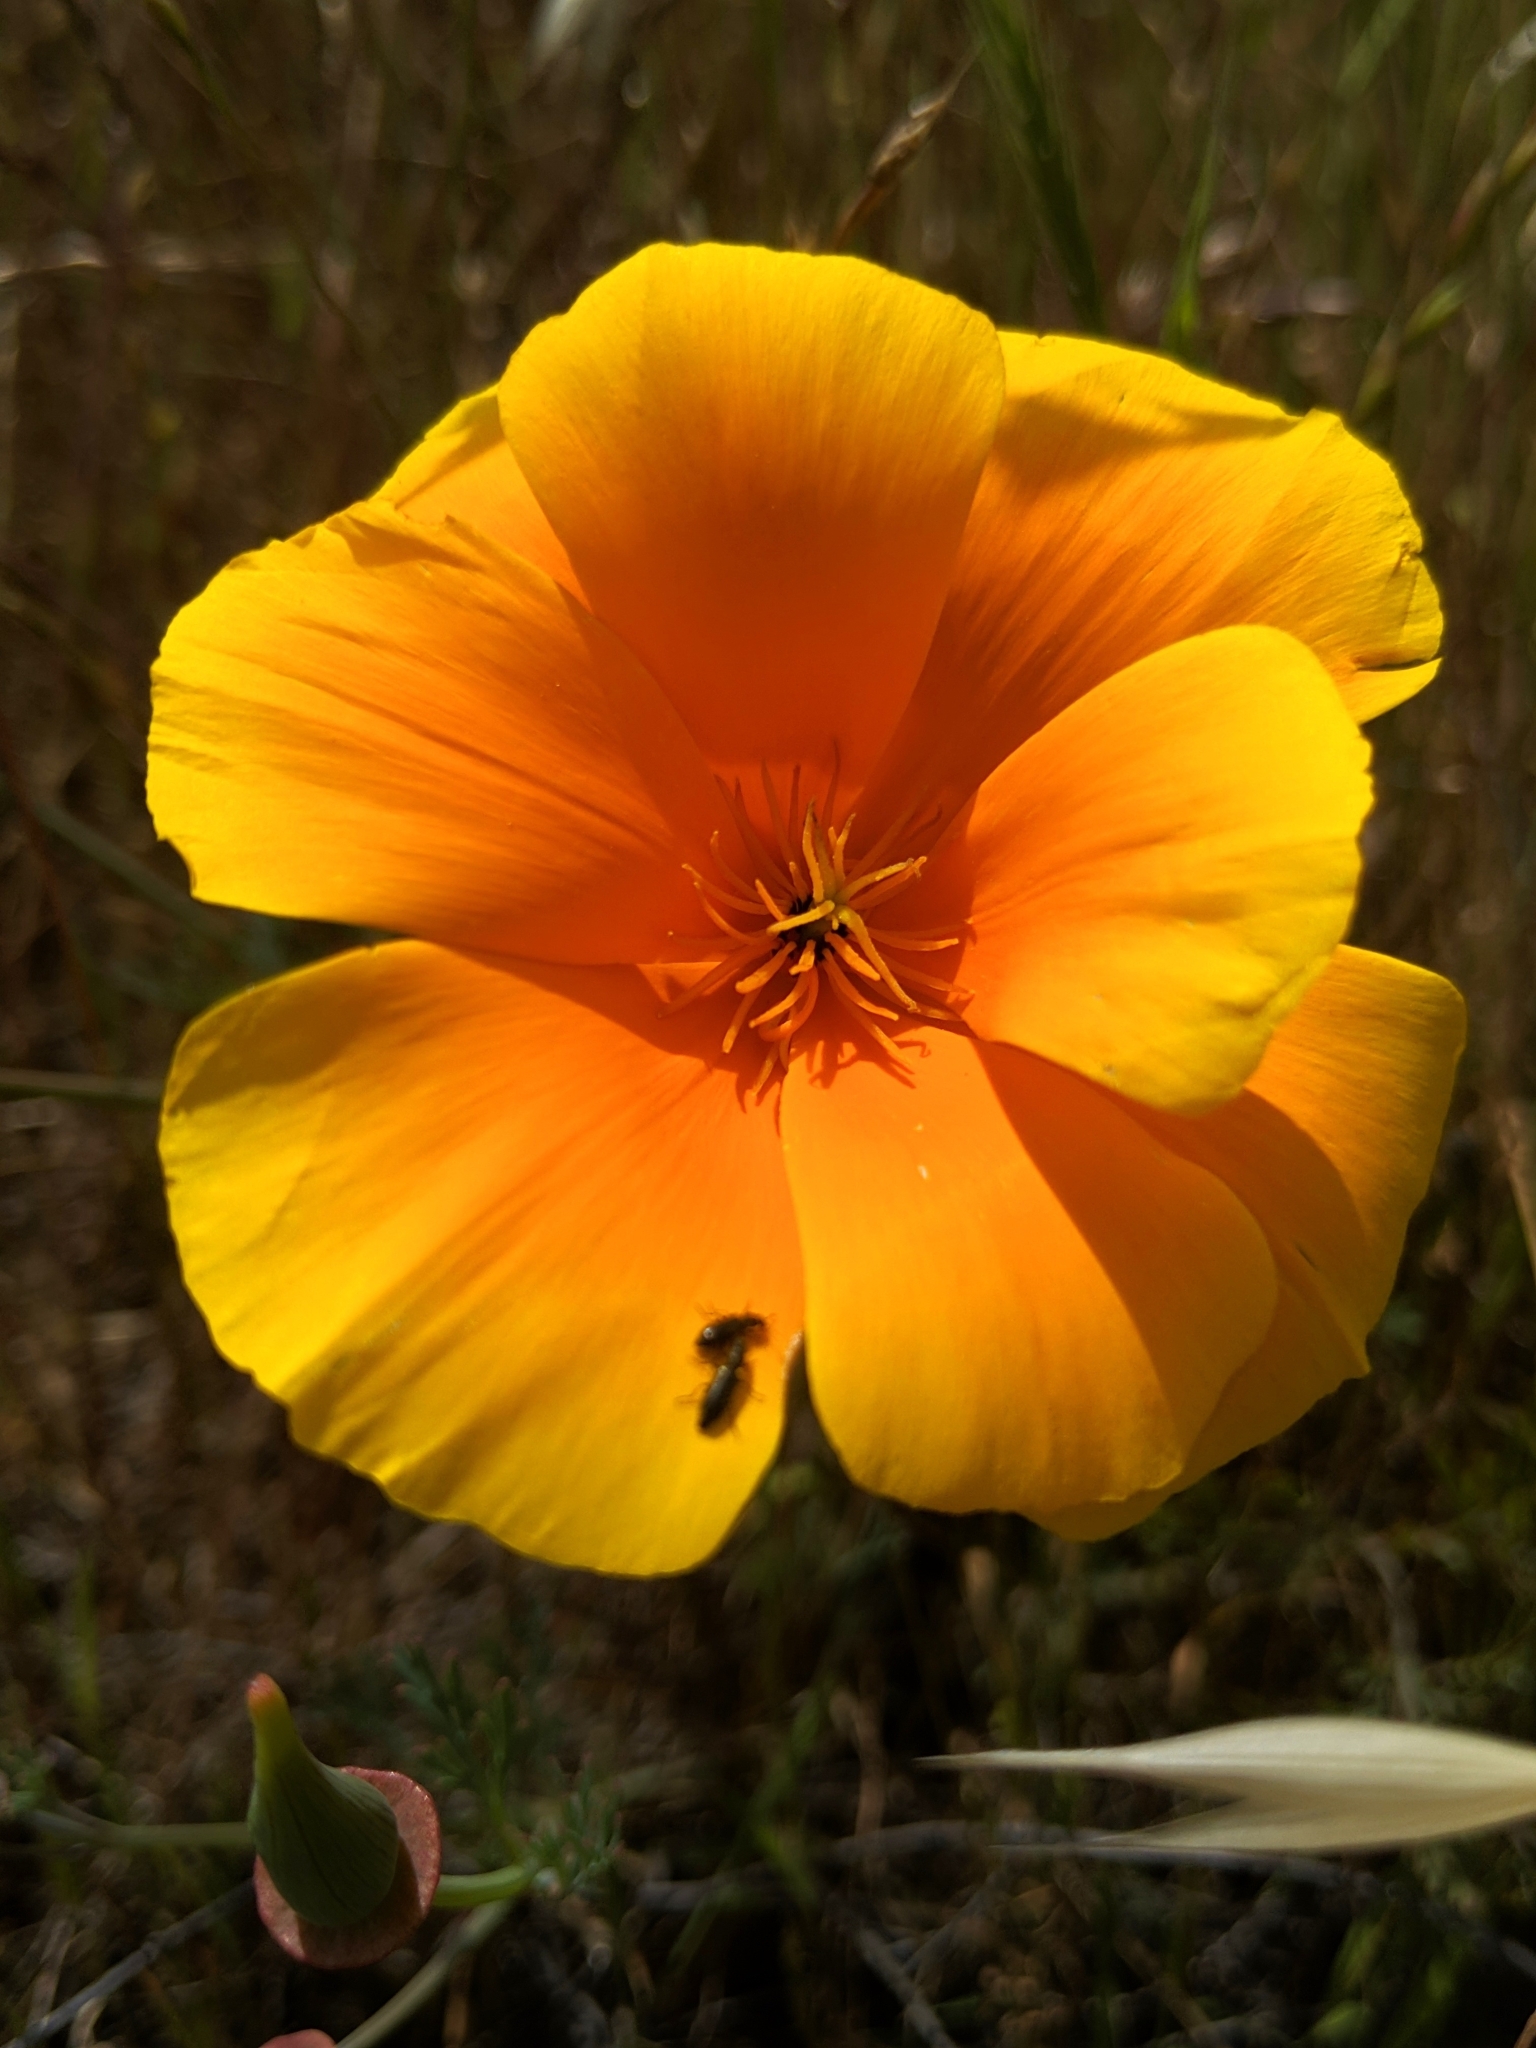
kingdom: Plantae
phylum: Tracheophyta
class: Magnoliopsida
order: Ranunculales
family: Papaveraceae
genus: Eschscholzia
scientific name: Eschscholzia californica
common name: California poppy
